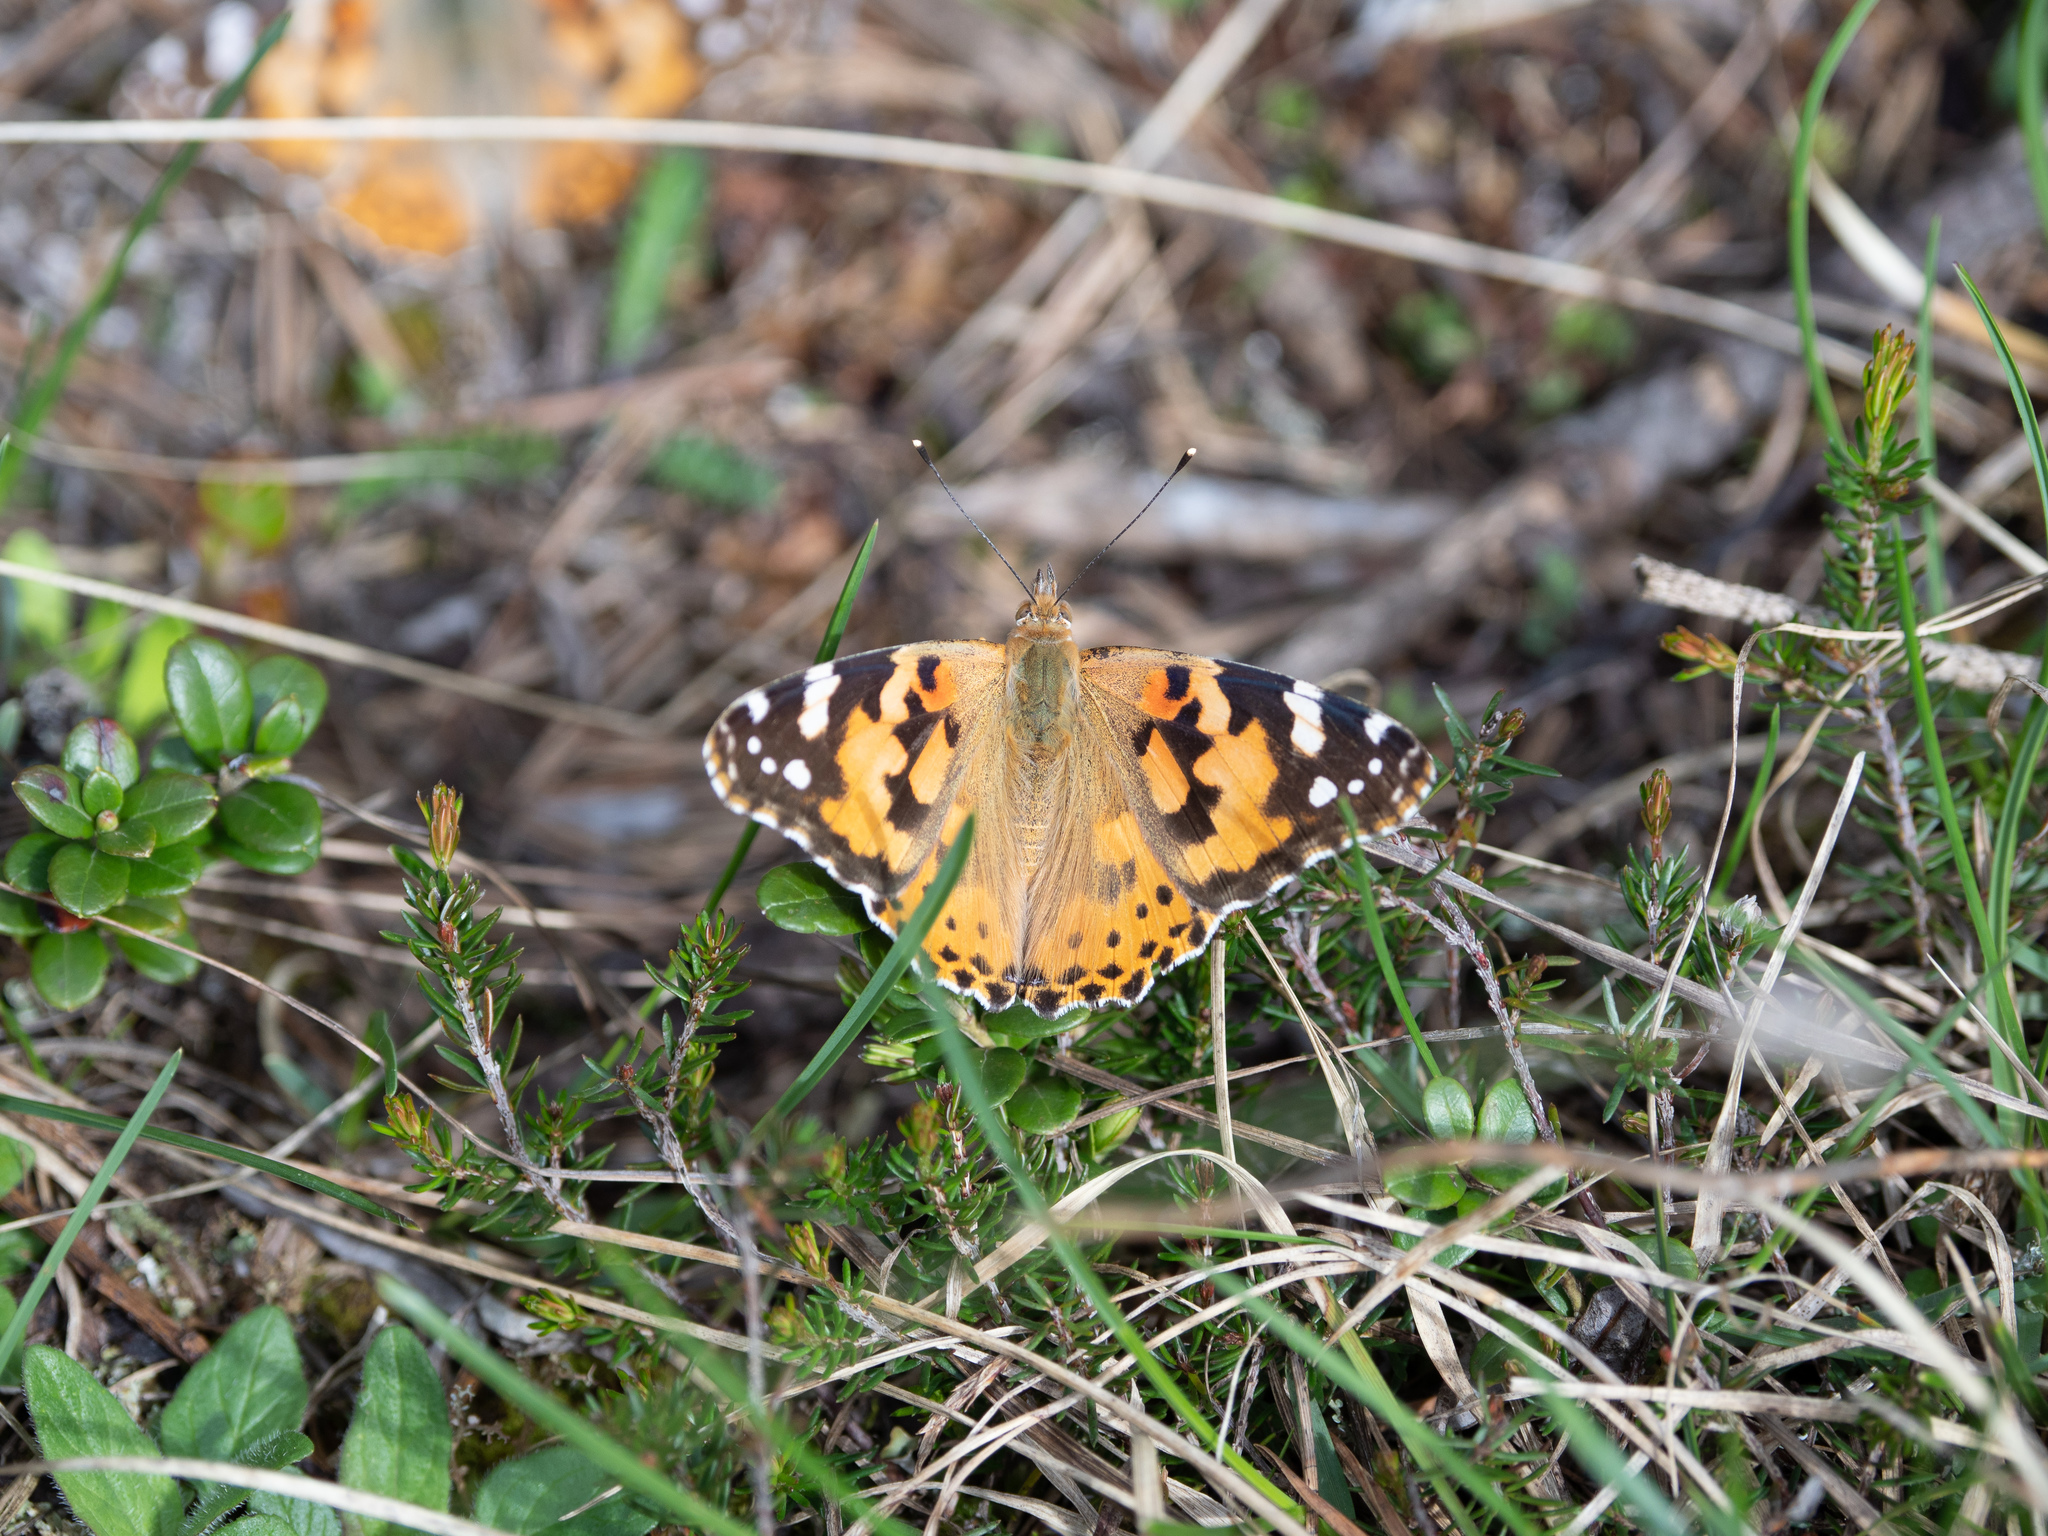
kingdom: Animalia
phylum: Arthropoda
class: Insecta
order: Lepidoptera
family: Nymphalidae
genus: Vanessa
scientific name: Vanessa cardui
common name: Painted lady
